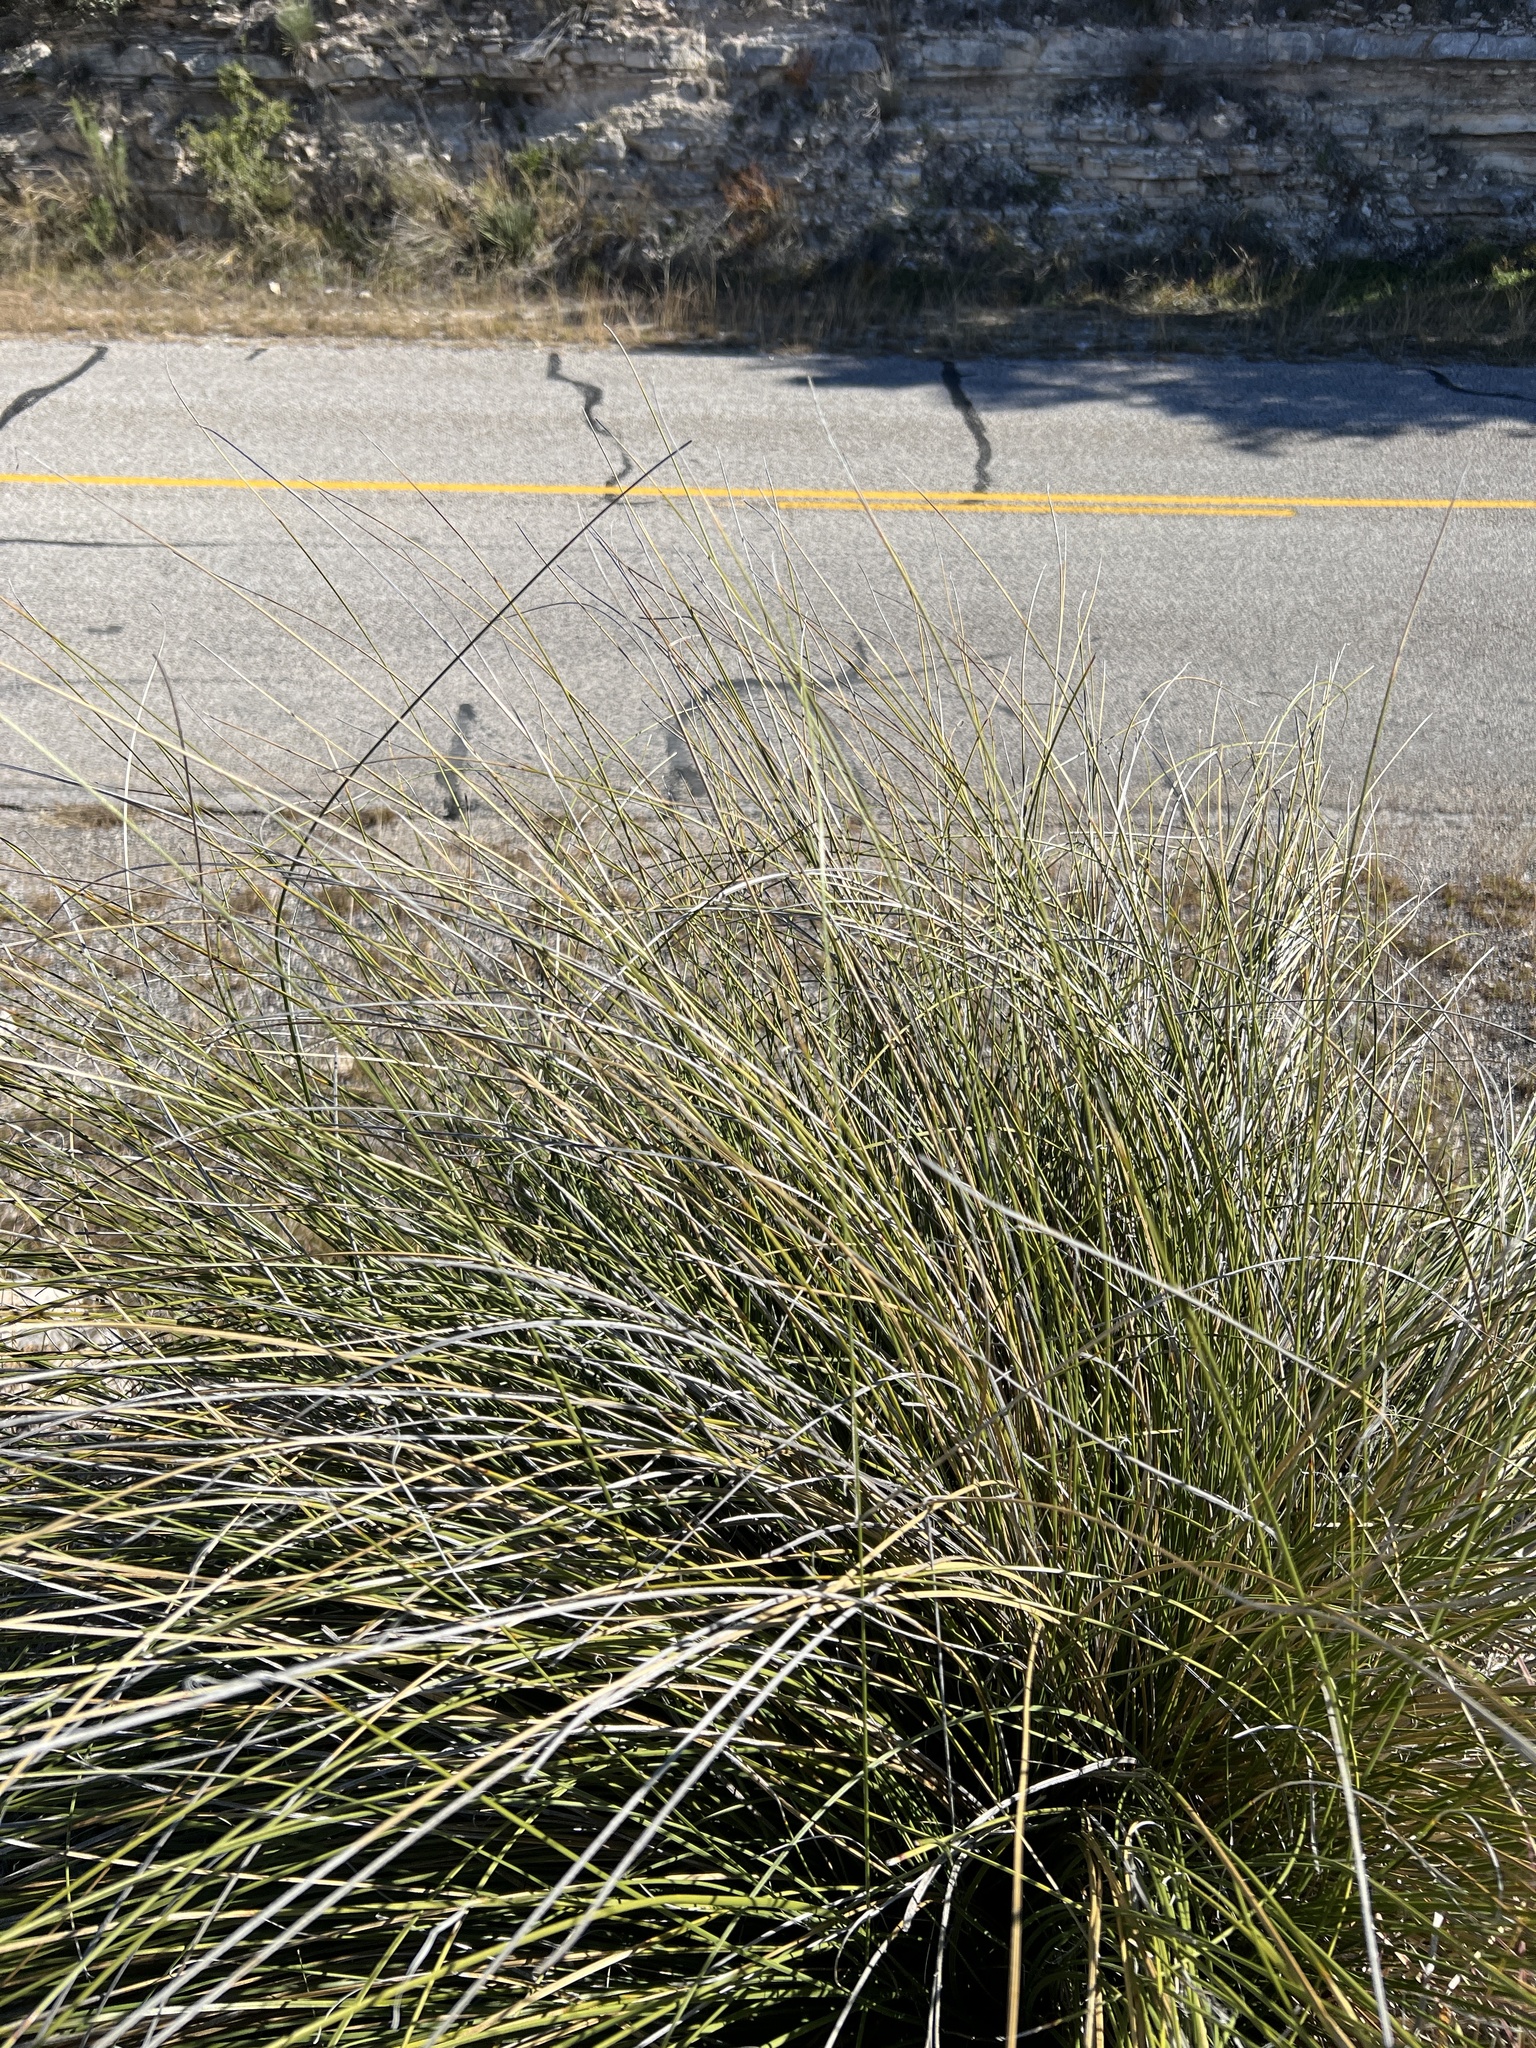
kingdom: Plantae
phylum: Tracheophyta
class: Liliopsida
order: Asparagales
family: Asparagaceae
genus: Nolina
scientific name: Nolina texana
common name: Texas sacahuiste
